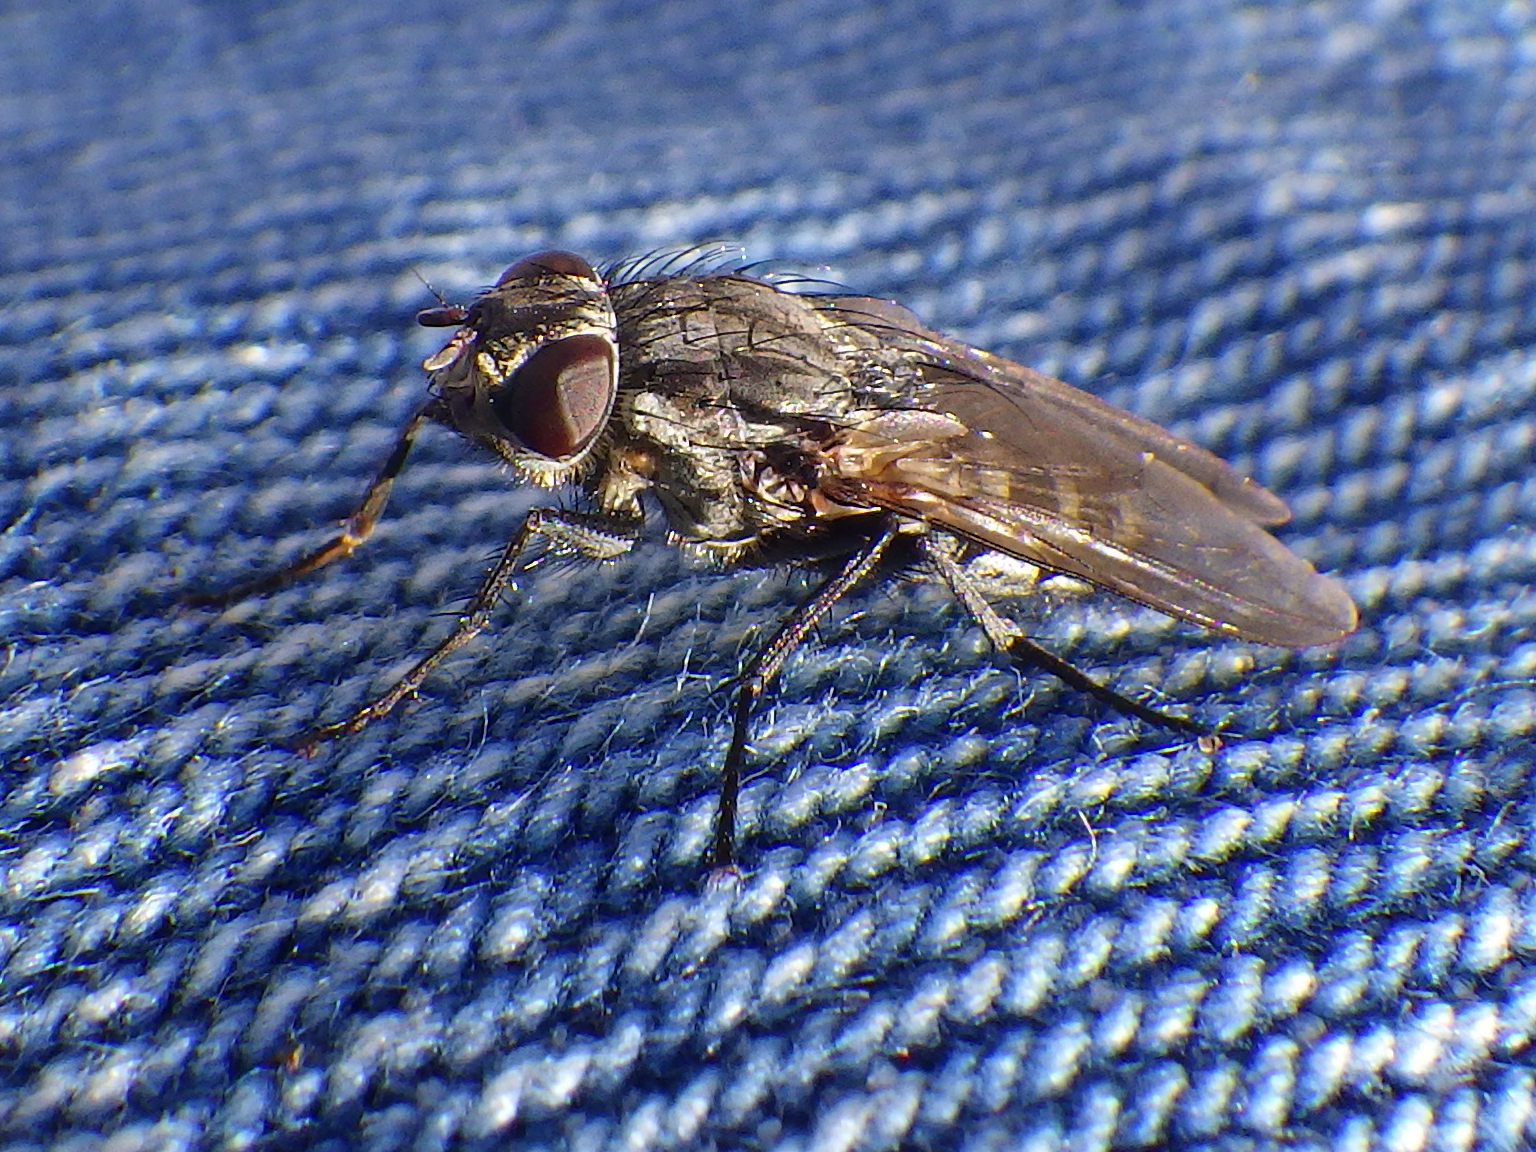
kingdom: Animalia
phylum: Arthropoda
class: Insecta
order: Diptera
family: Polleniidae
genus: Pollenia
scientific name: Pollenia vagabunda
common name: Vagabund cluster fly
